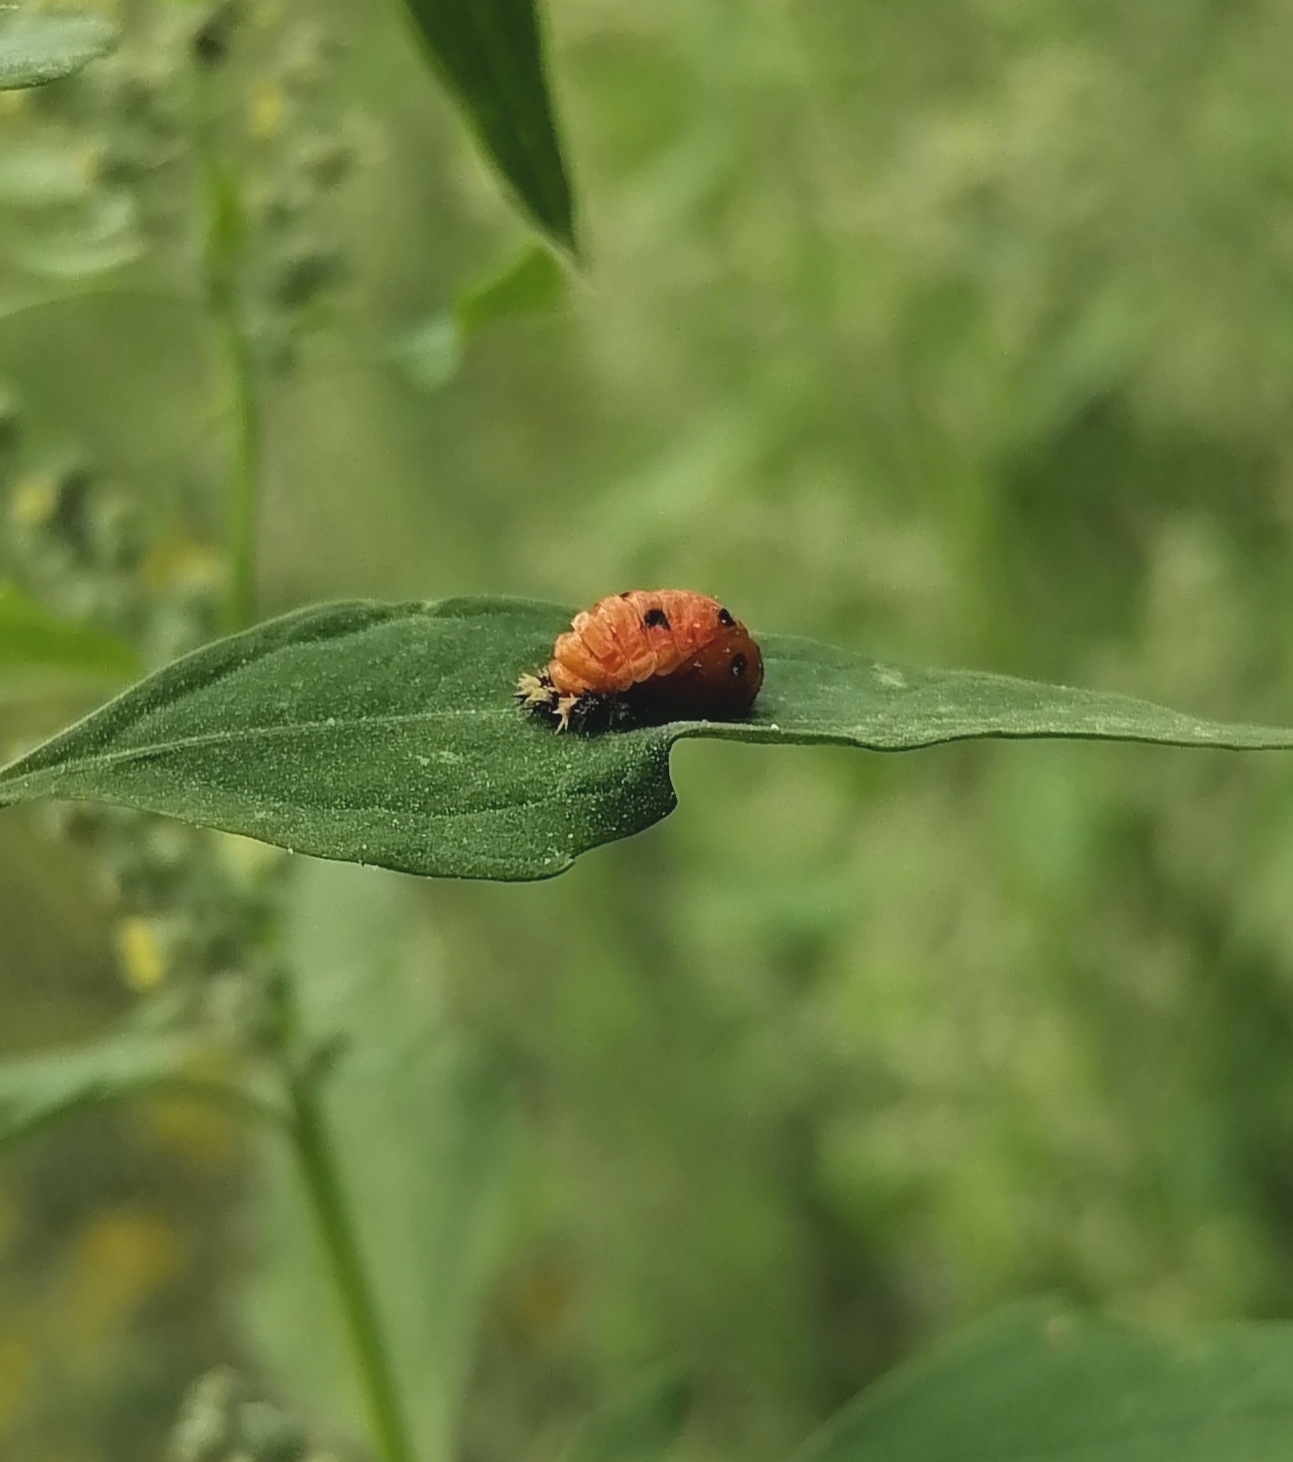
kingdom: Animalia
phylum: Arthropoda
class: Insecta
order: Coleoptera
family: Coccinellidae
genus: Harmonia
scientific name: Harmonia axyridis
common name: Harlequin ladybird
